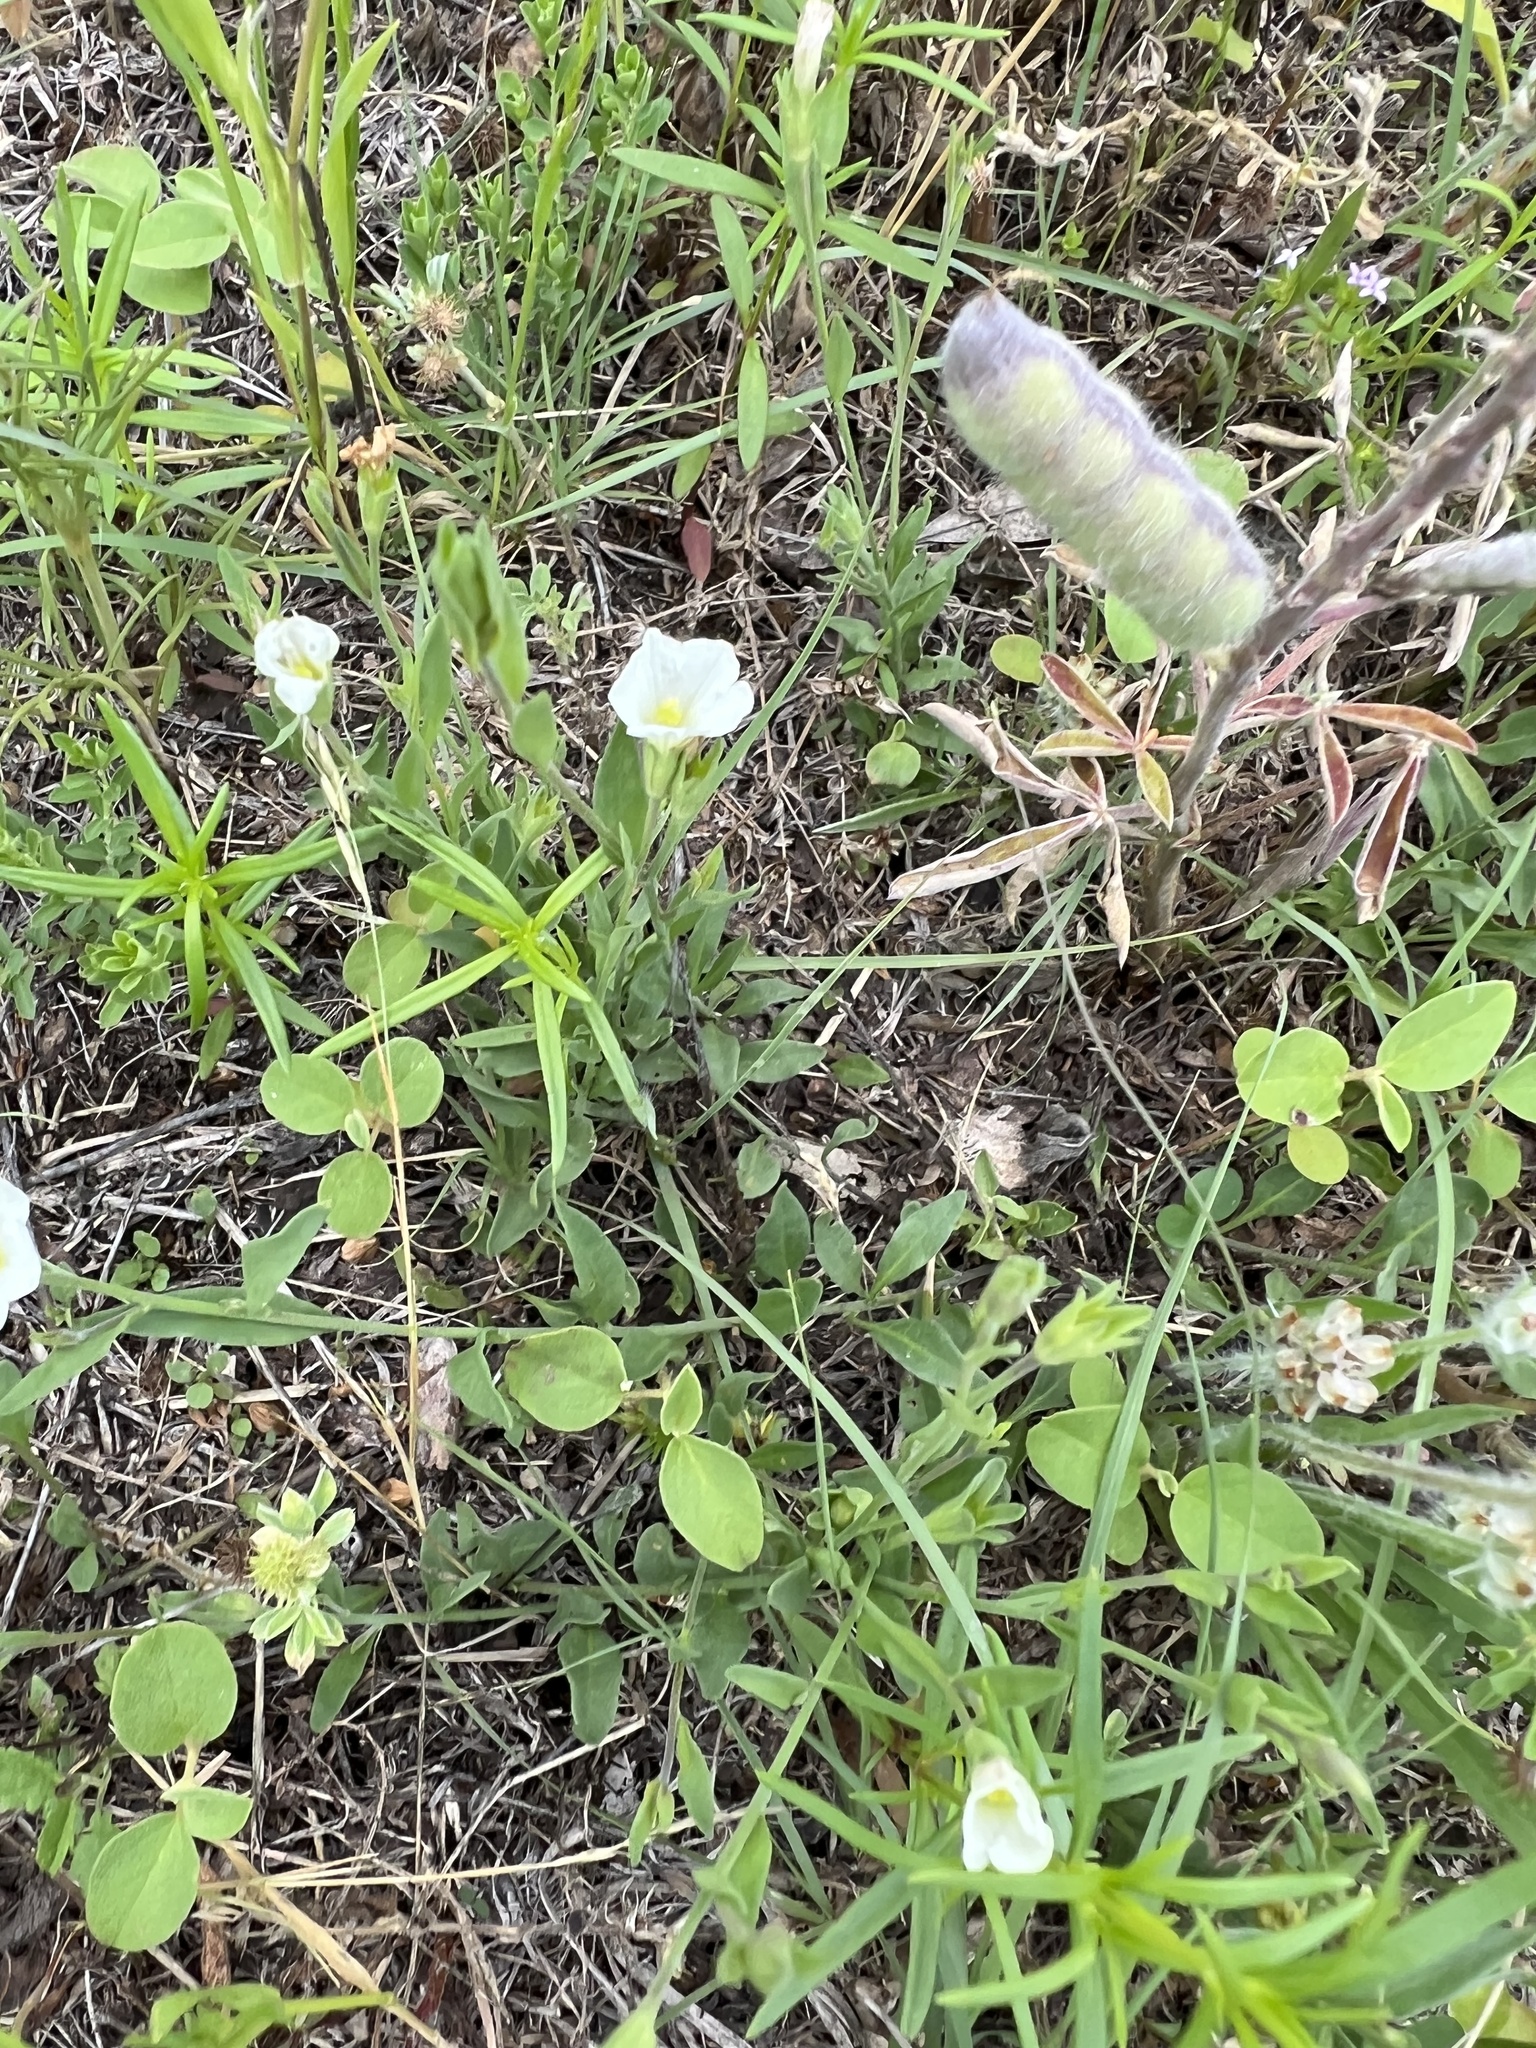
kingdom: Plantae
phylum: Tracheophyta
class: Magnoliopsida
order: Solanales
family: Solanaceae
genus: Salpiglossis
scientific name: Salpiglossis erecta
